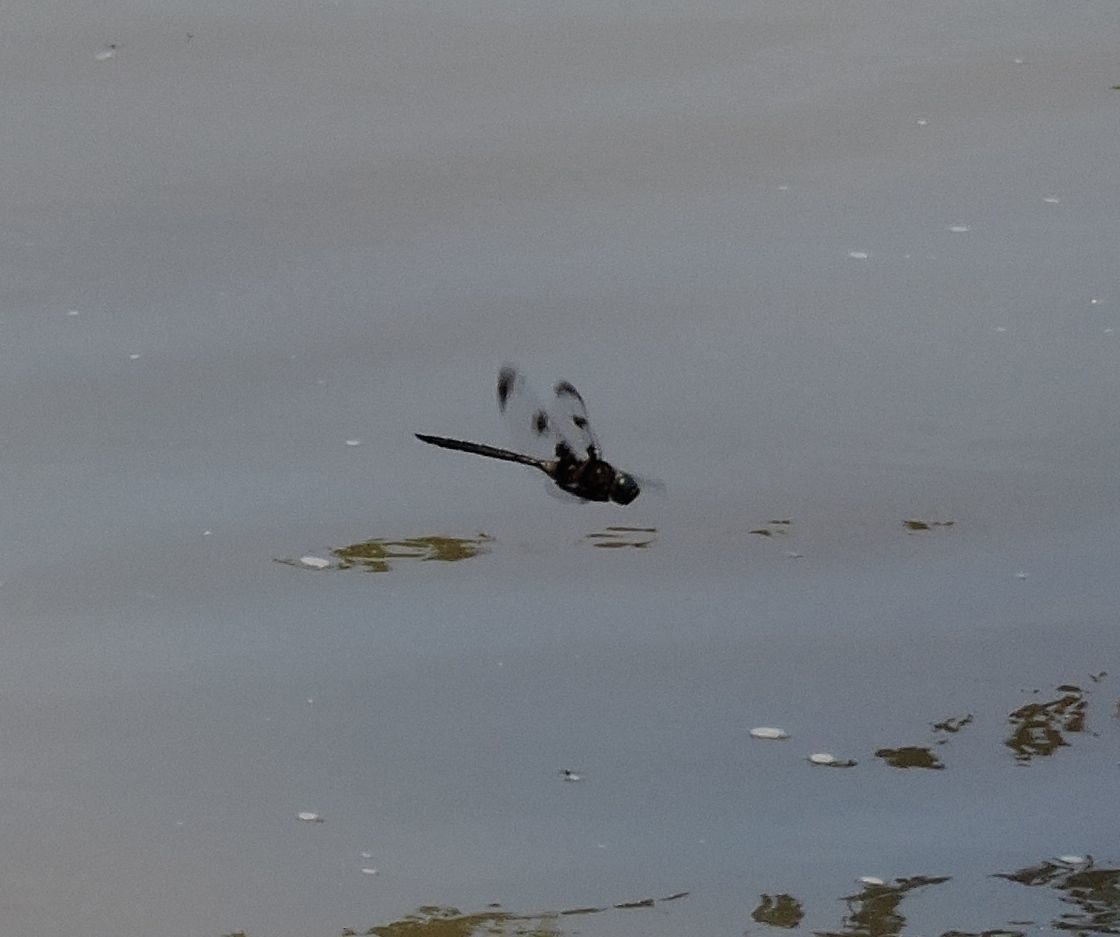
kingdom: Animalia
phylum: Arthropoda
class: Insecta
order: Odonata
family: Corduliidae
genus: Epitheca
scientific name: Epitheca princeps
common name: Prince baskettail
